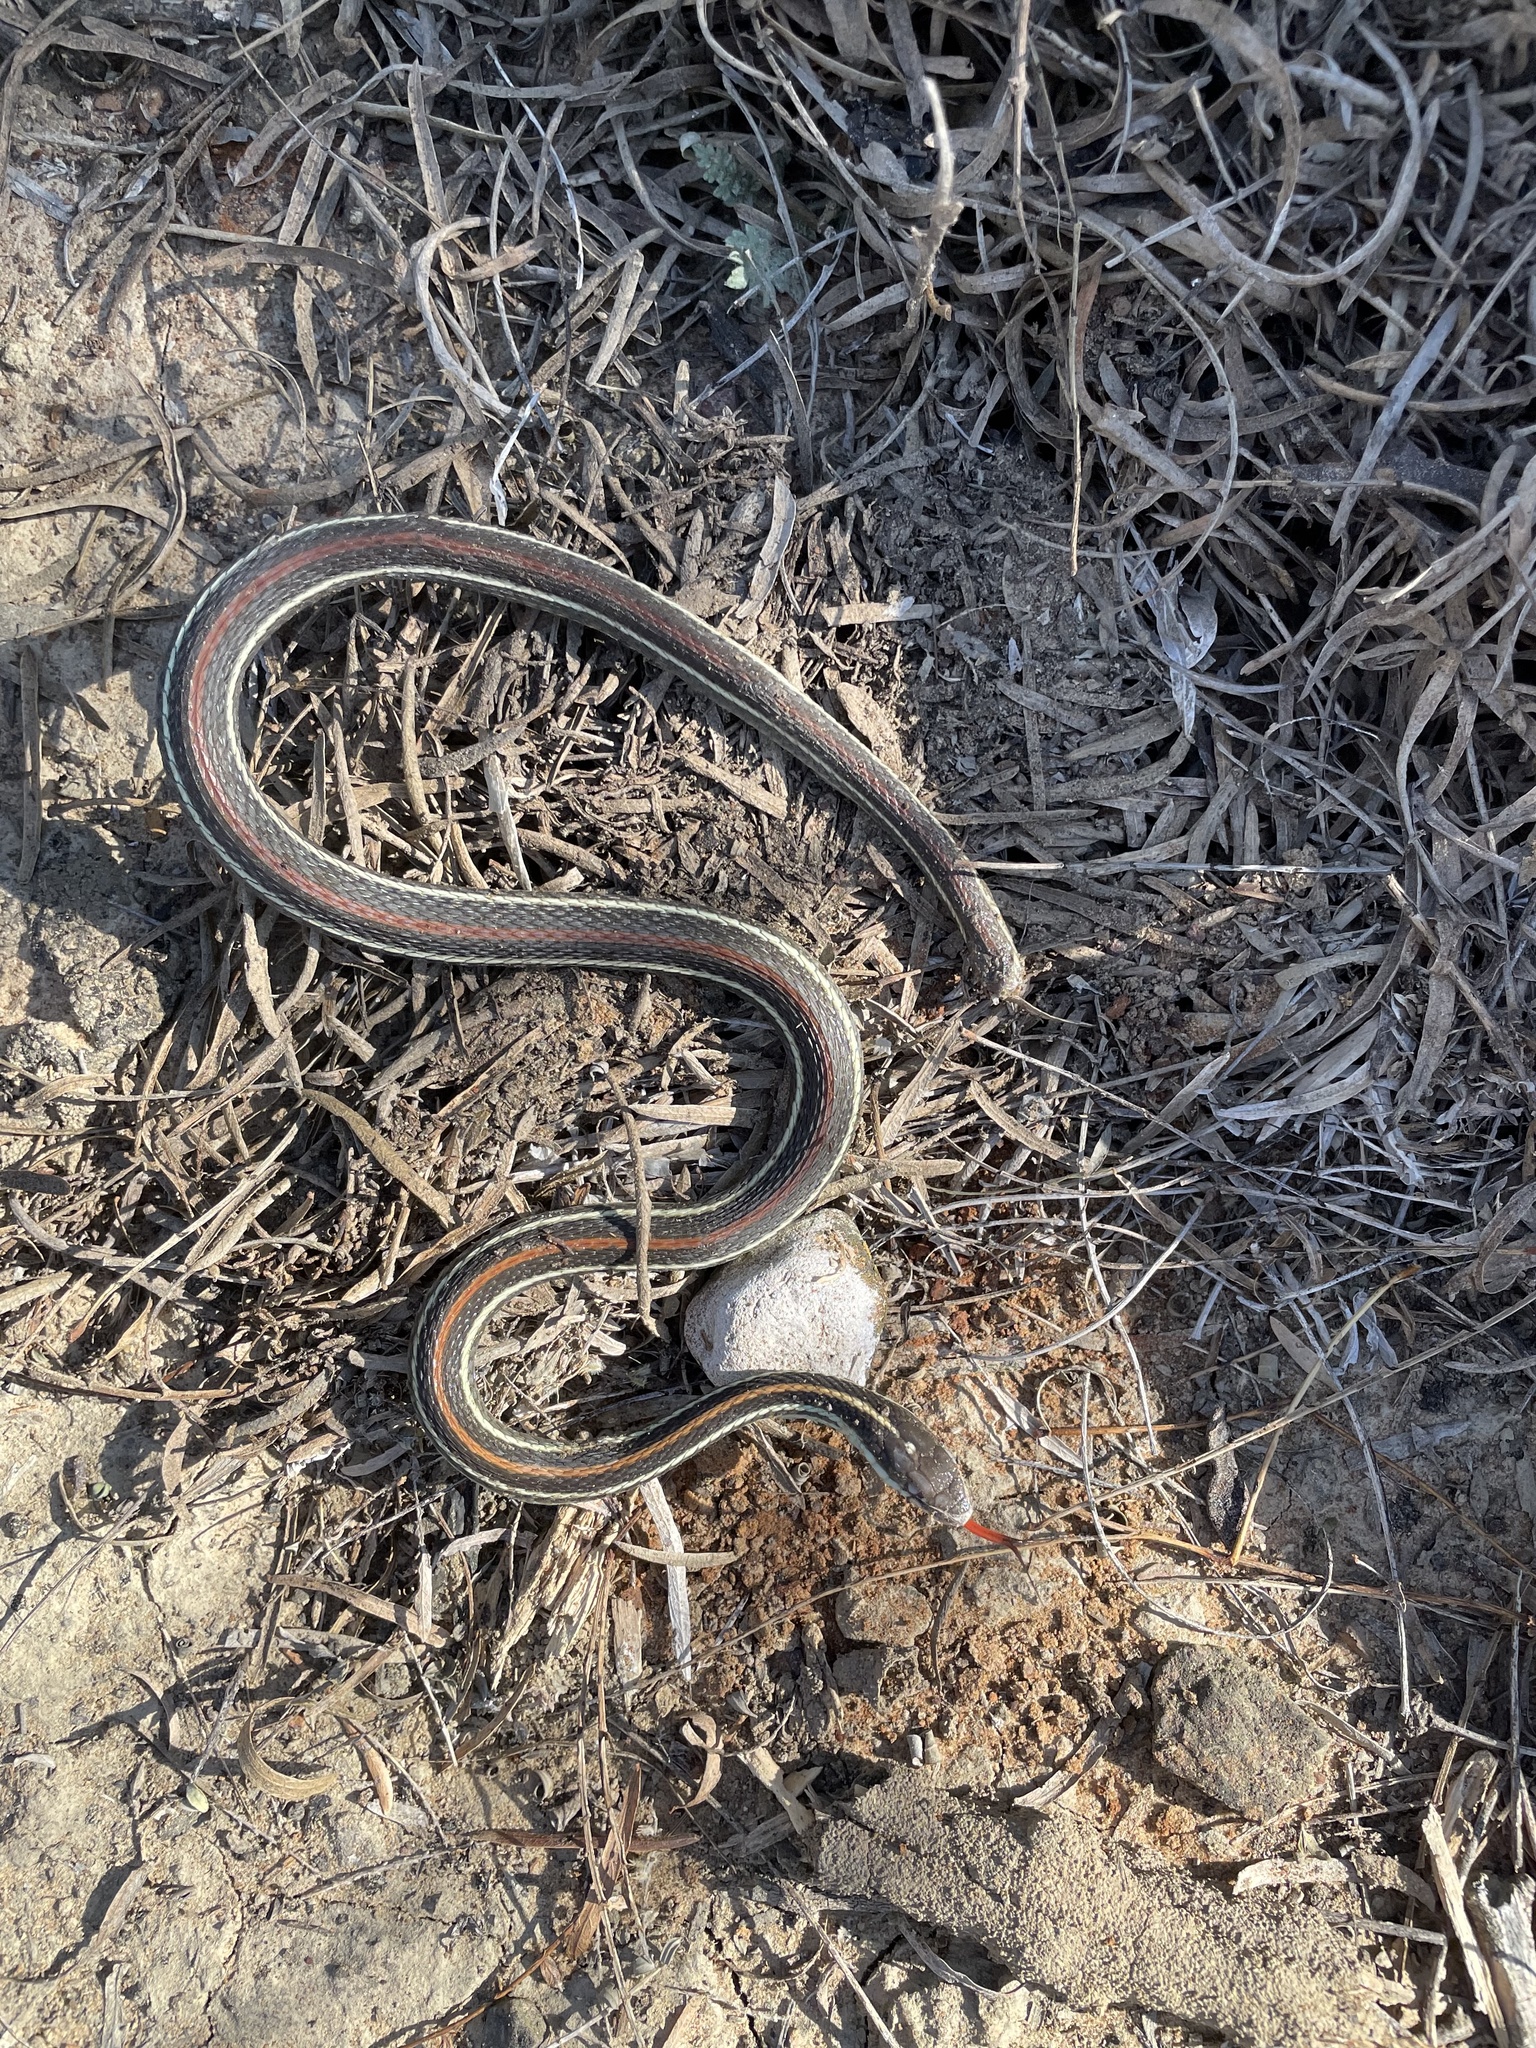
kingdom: Animalia
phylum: Chordata
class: Squamata
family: Colubridae
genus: Thamnophis
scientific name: Thamnophis proximus
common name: Western ribbon snake
